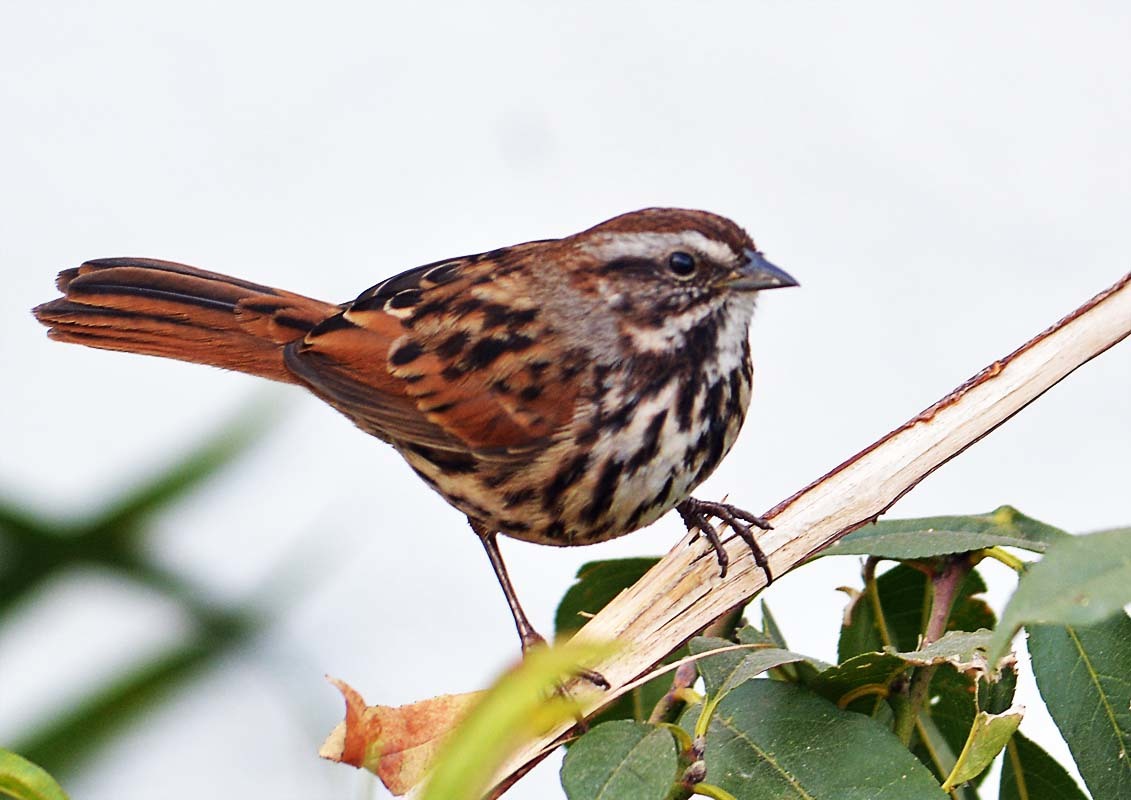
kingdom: Animalia
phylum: Chordata
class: Aves
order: Passeriformes
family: Passerellidae
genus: Melospiza
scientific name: Melospiza melodia
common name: Song sparrow
